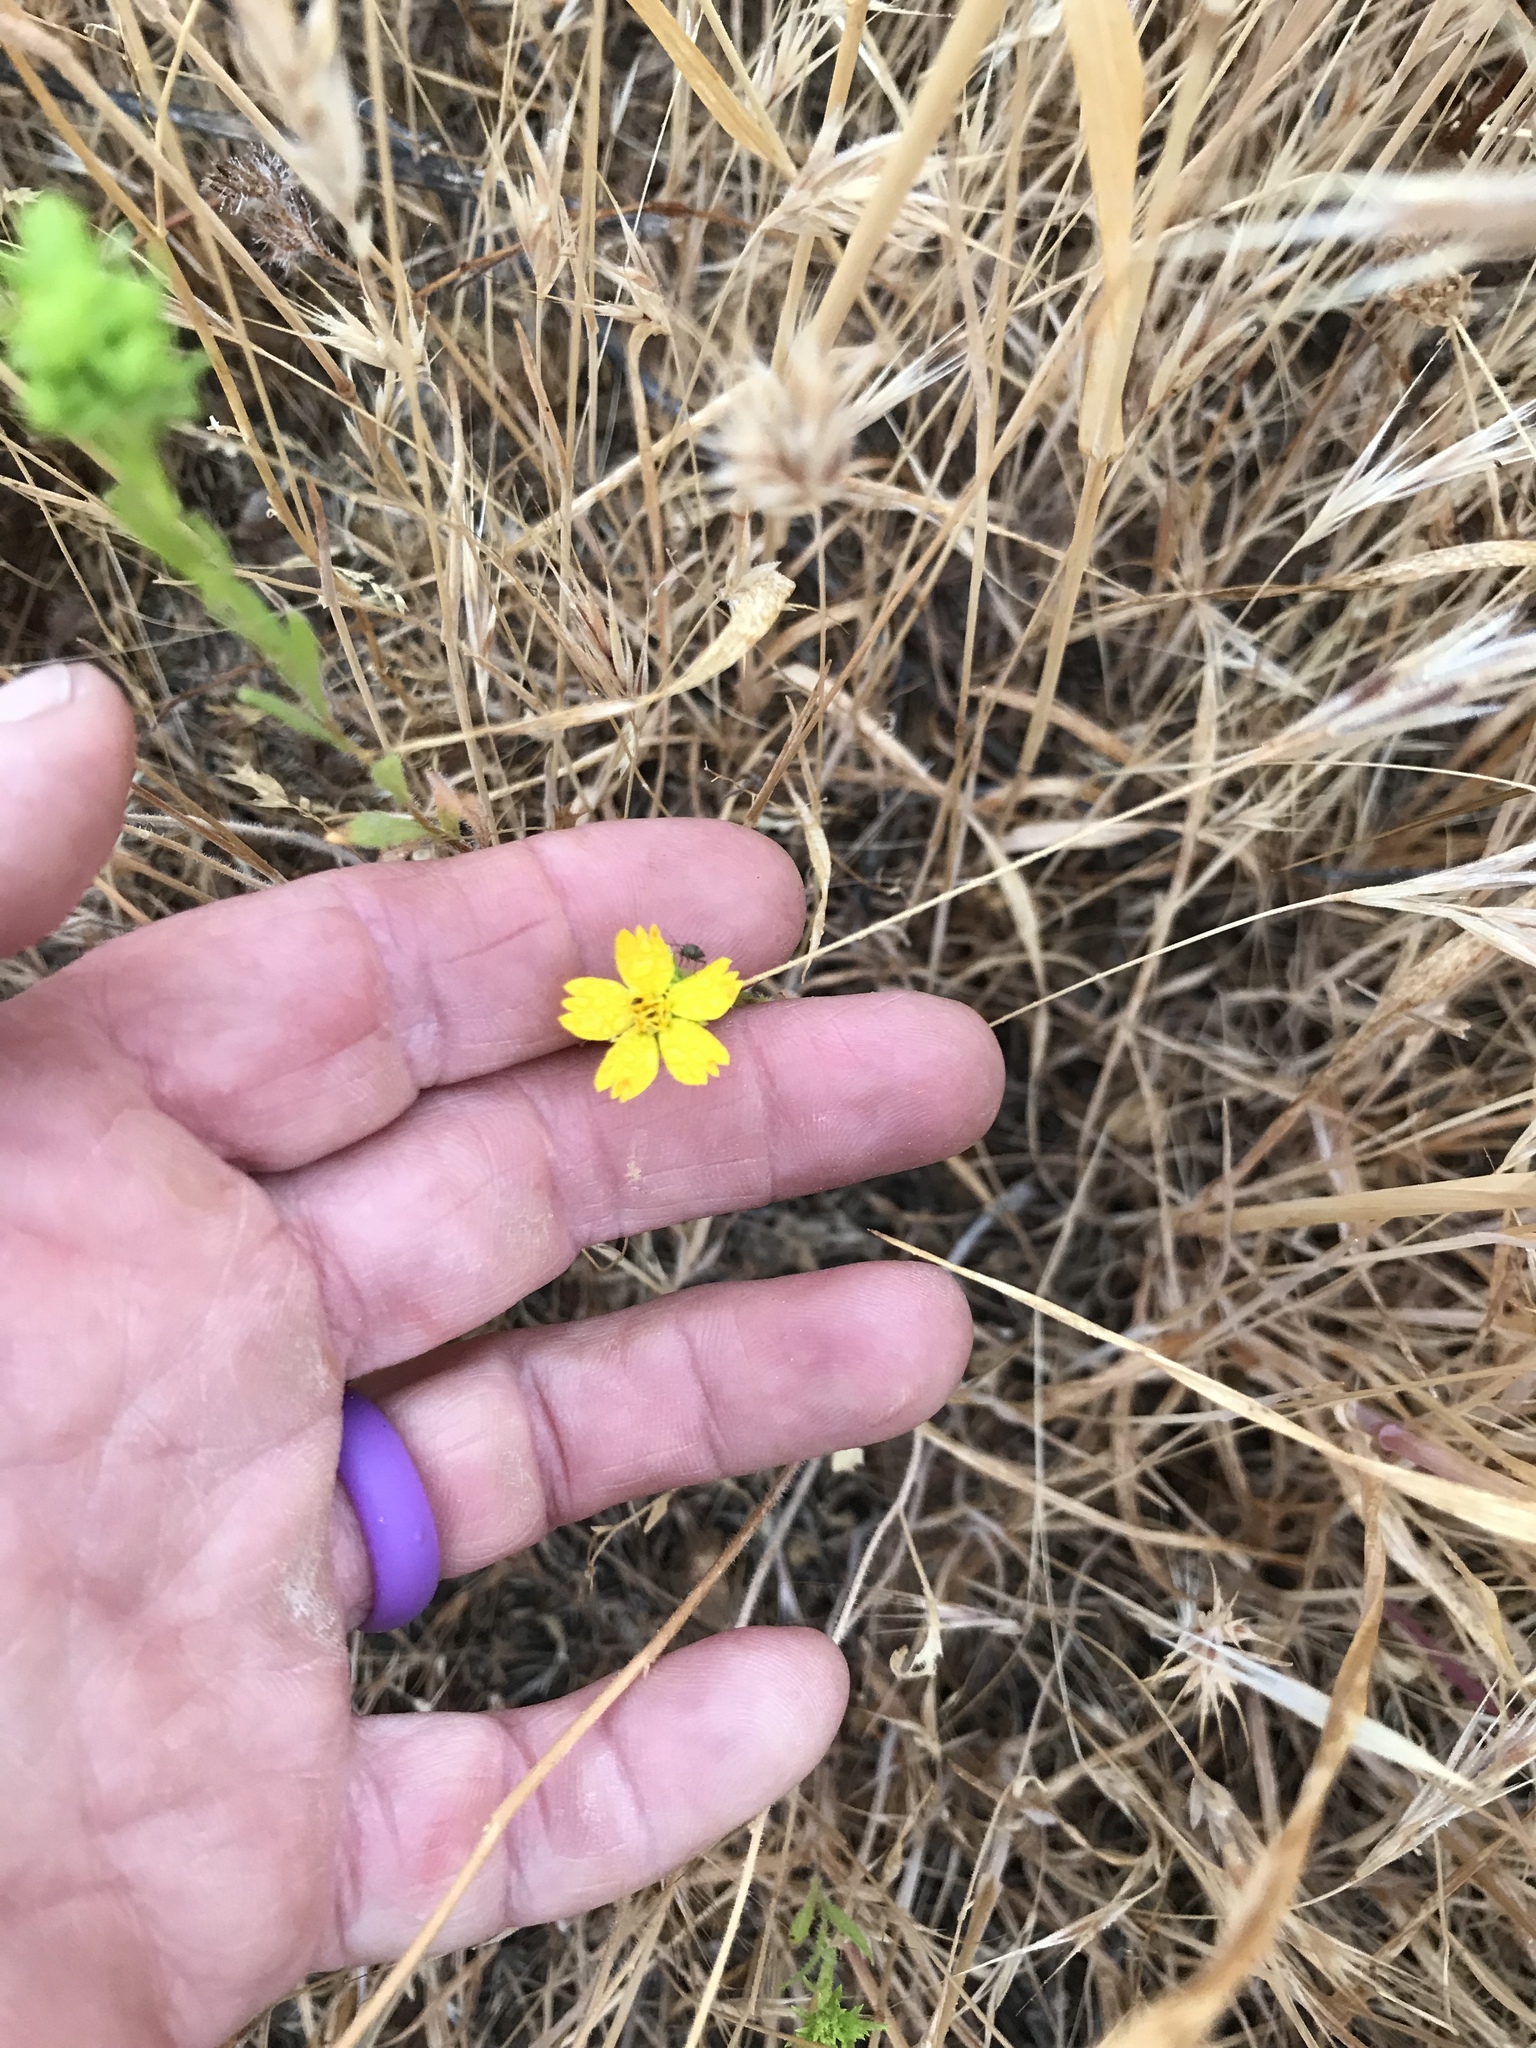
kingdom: Plantae
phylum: Tracheophyta
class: Magnoliopsida
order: Asterales
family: Asteraceae
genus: Deinandra
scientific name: Deinandra fasciculata
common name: Clustered tarweed
